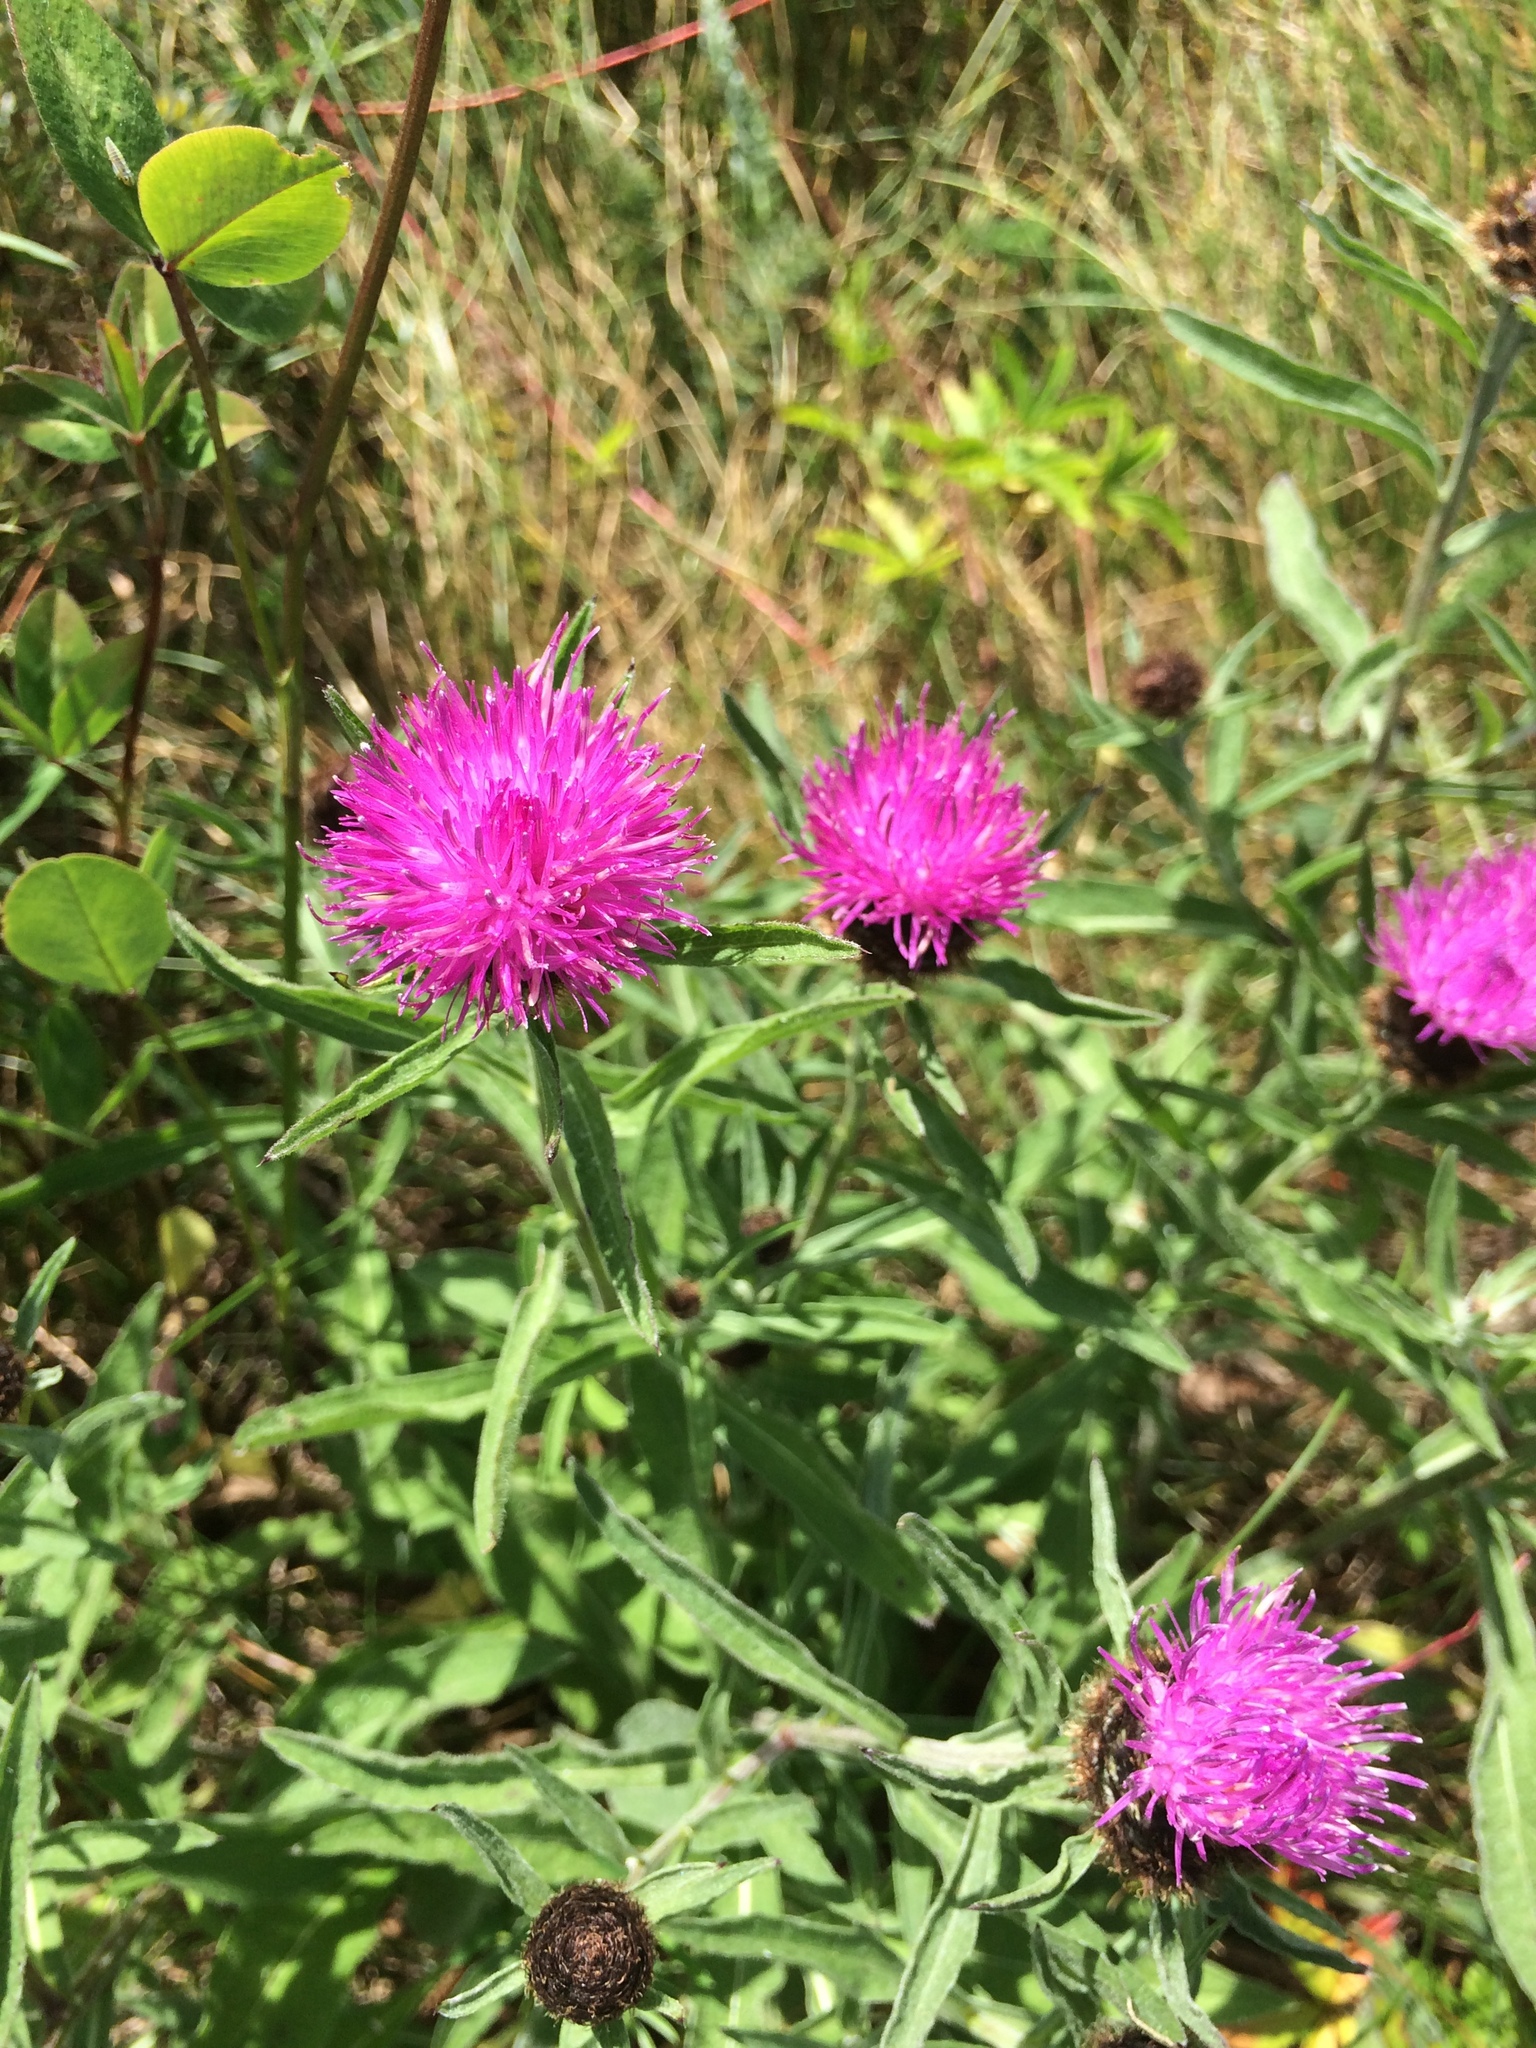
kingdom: Plantae
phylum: Tracheophyta
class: Magnoliopsida
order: Asterales
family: Asteraceae
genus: Centaurea
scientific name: Centaurea nigra
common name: Lesser knapweed
